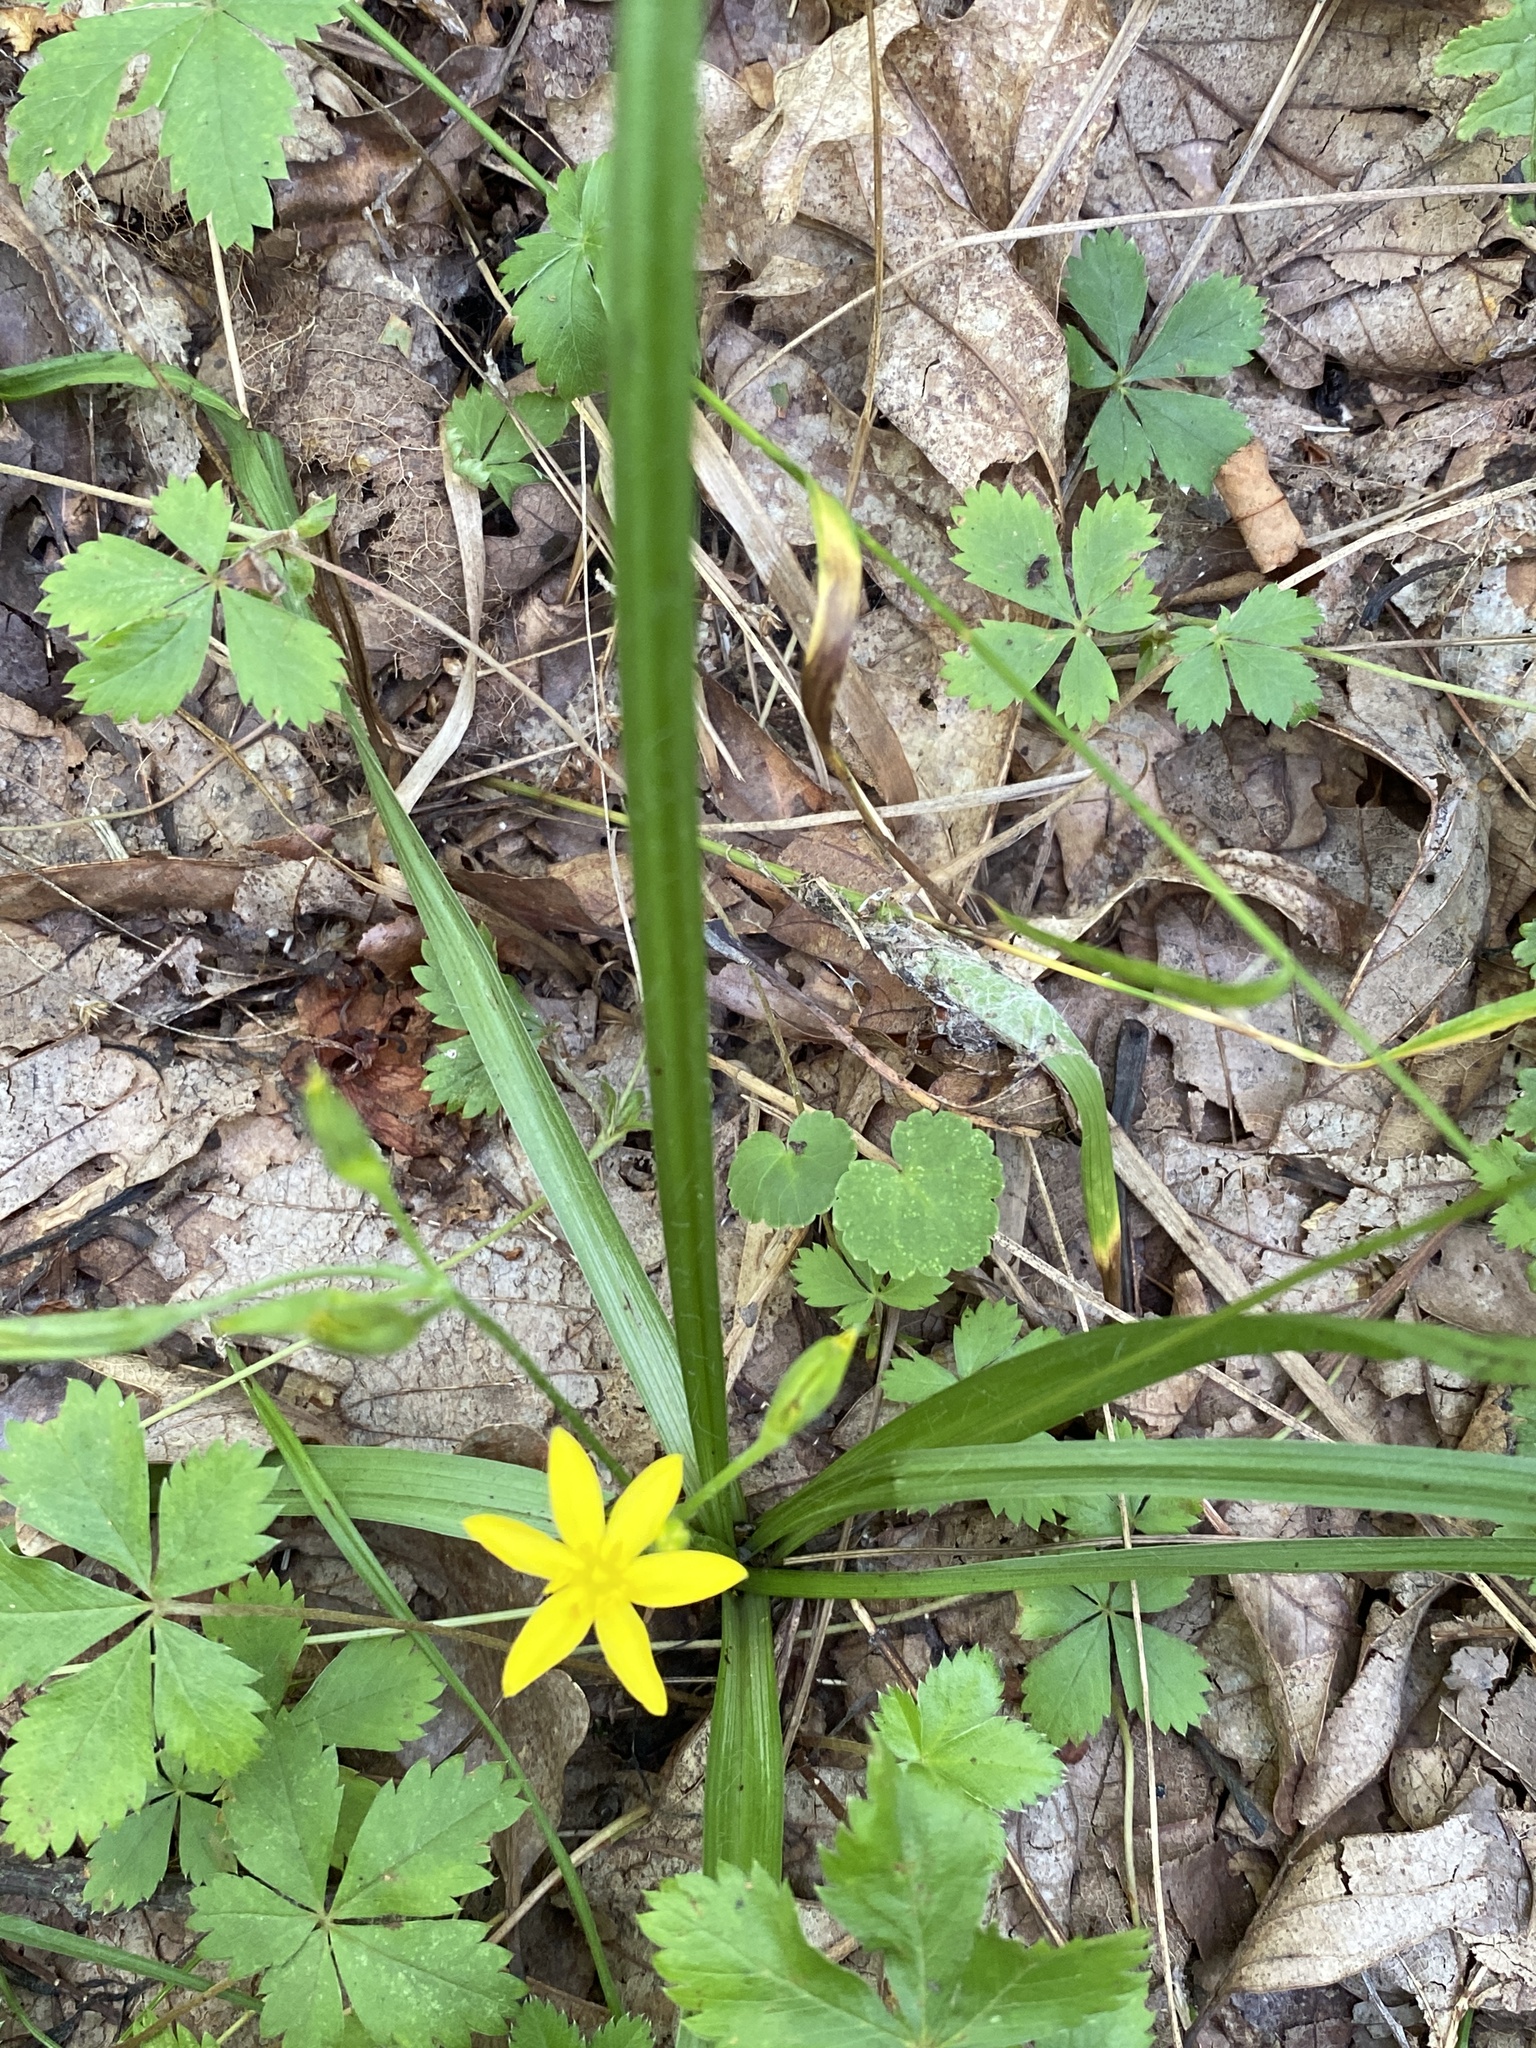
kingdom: Plantae
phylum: Tracheophyta
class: Liliopsida
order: Asparagales
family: Hypoxidaceae
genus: Hypoxis
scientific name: Hypoxis hirsuta
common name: Common goldstar
